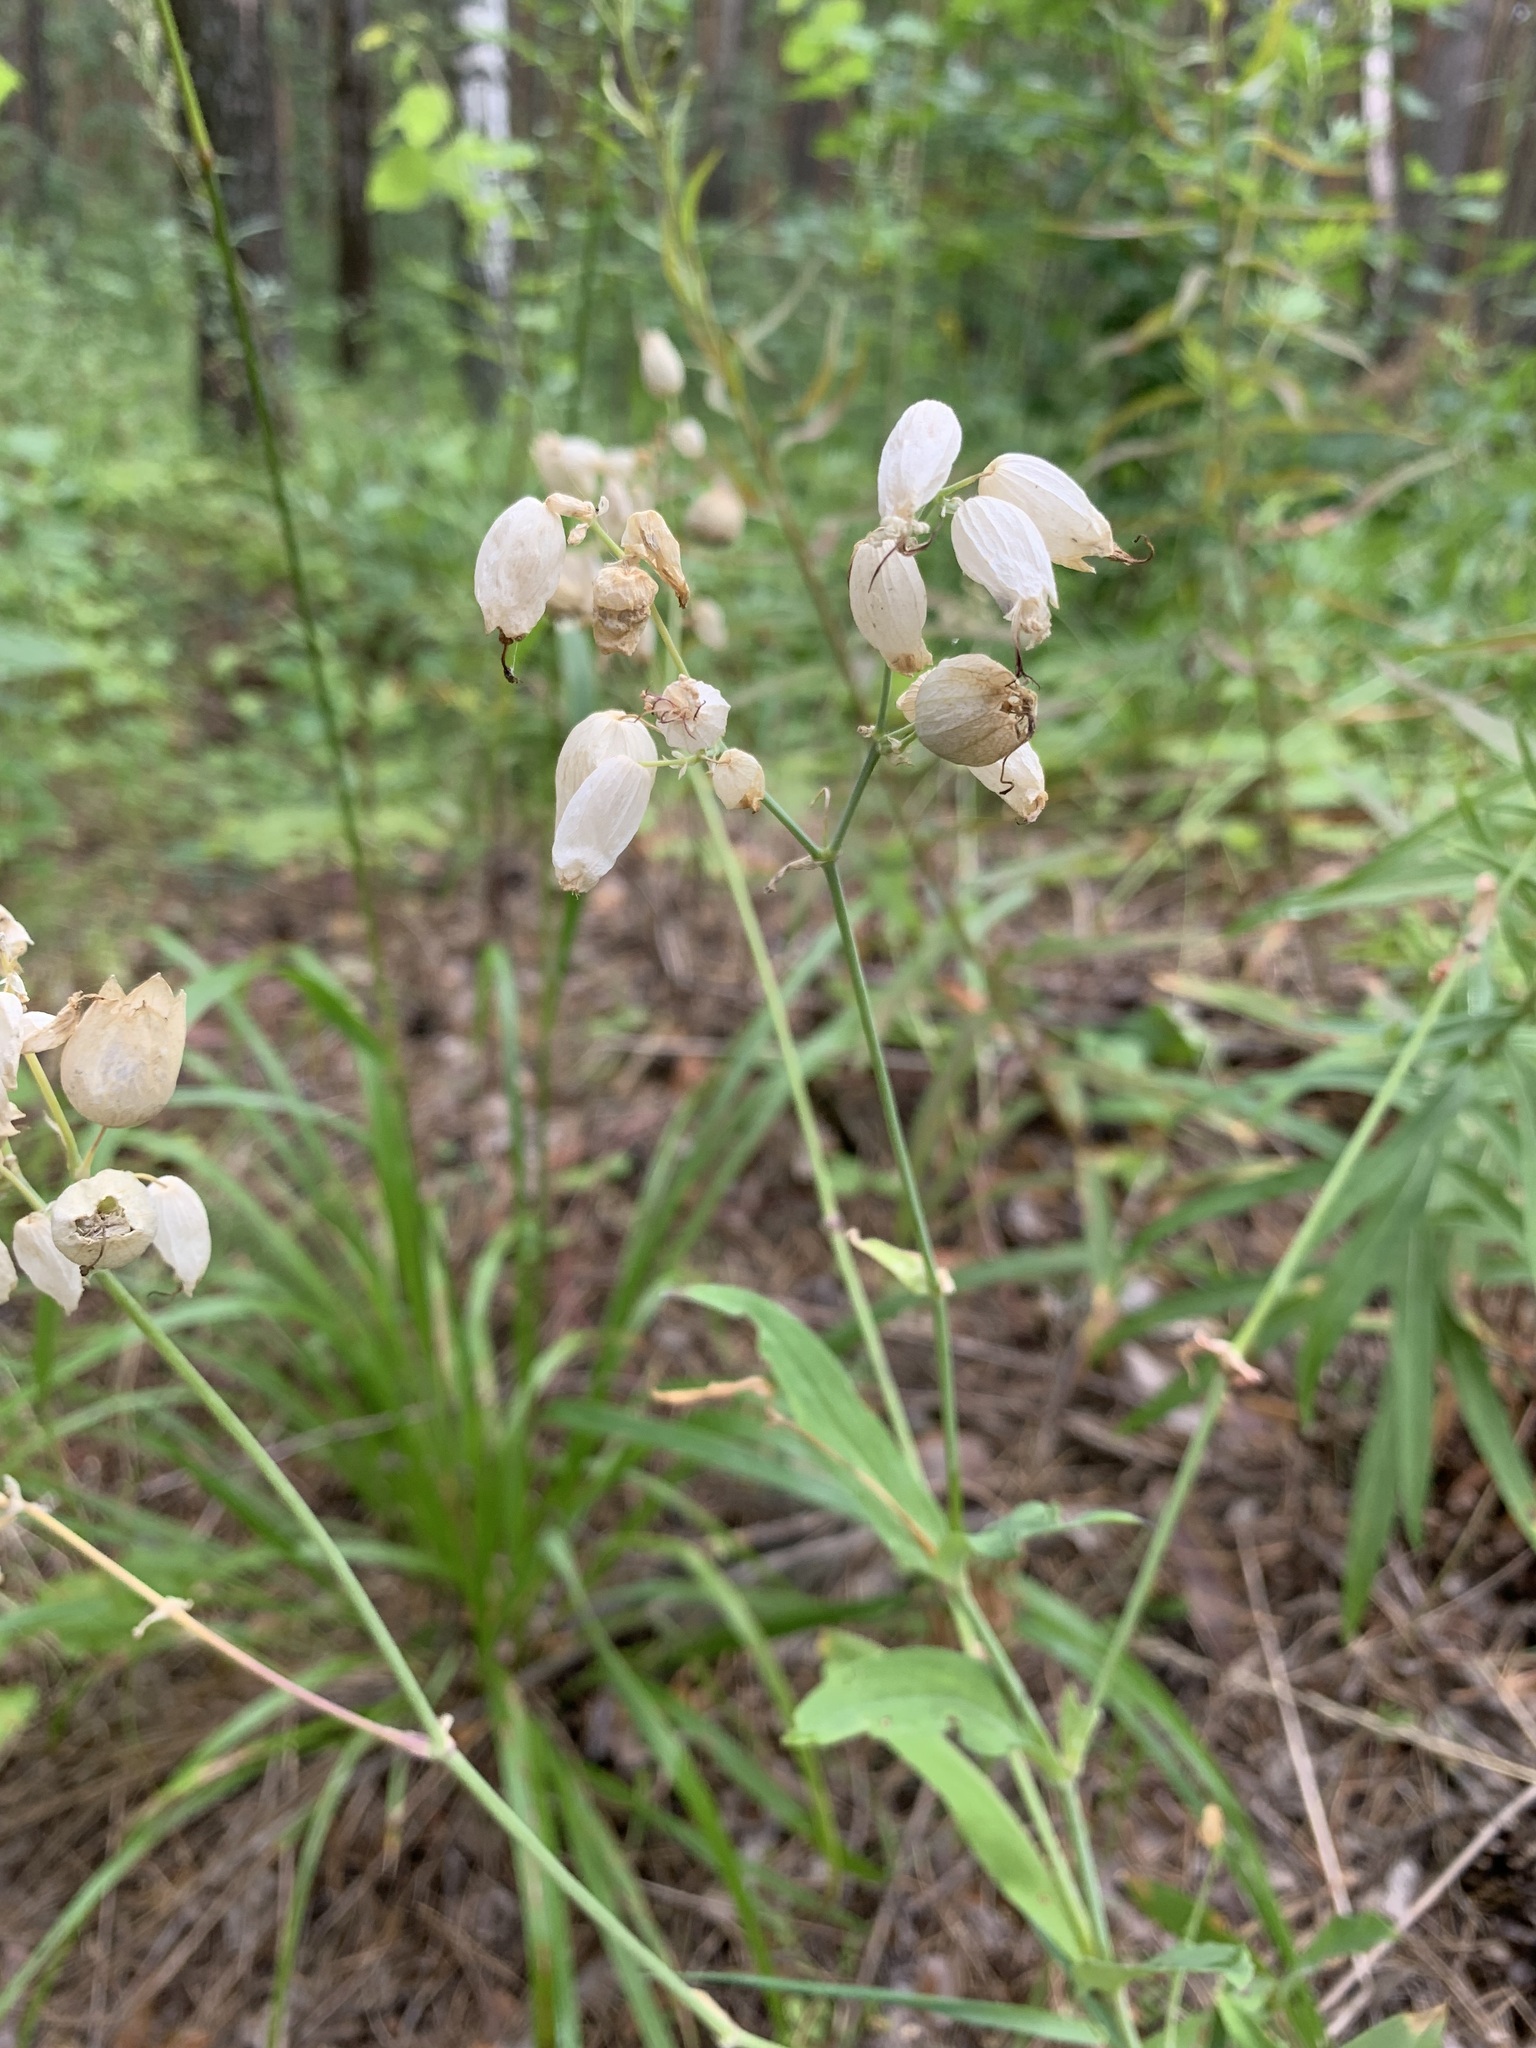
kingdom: Plantae
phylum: Tracheophyta
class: Magnoliopsida
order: Caryophyllales
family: Caryophyllaceae
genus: Silene
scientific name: Silene vulgaris
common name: Bladder campion
